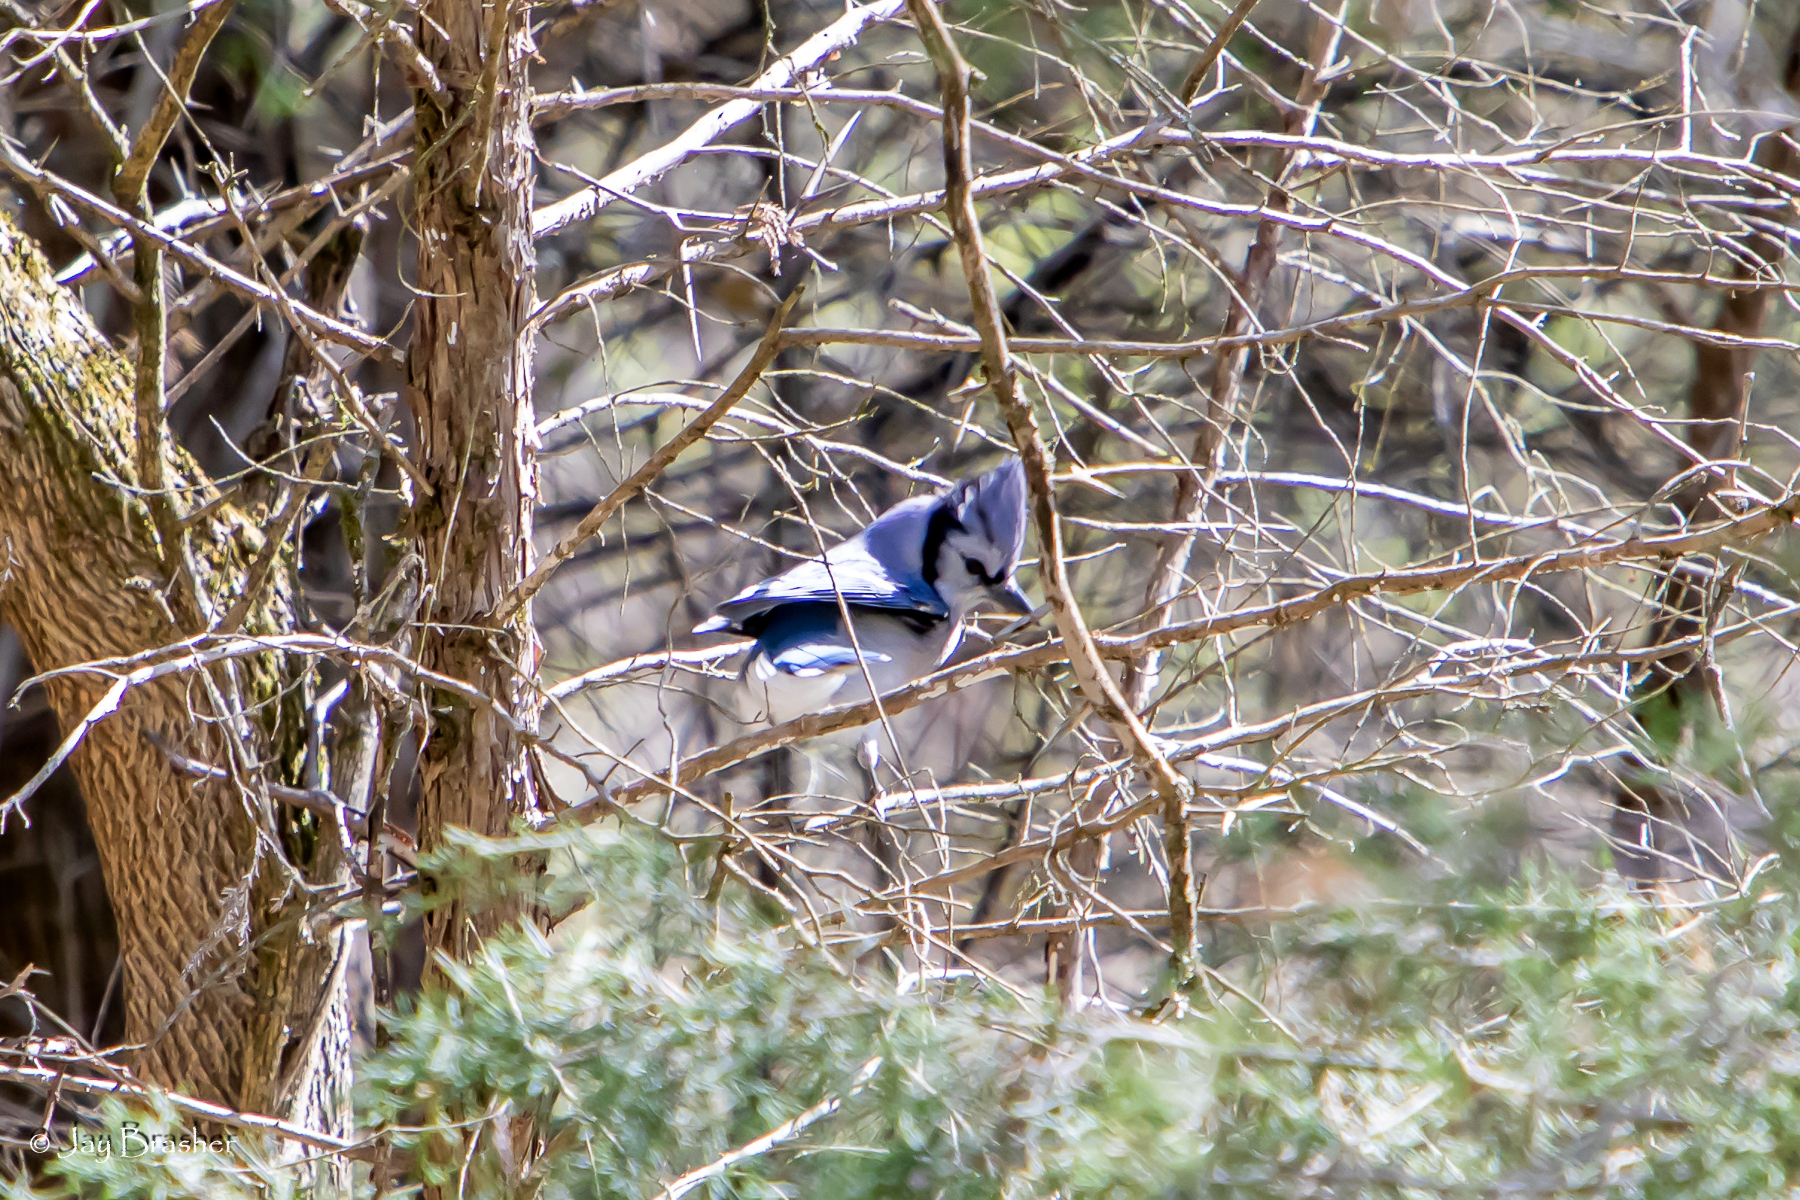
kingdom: Animalia
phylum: Chordata
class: Aves
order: Passeriformes
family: Corvidae
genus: Cyanocitta
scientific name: Cyanocitta cristata
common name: Blue jay
